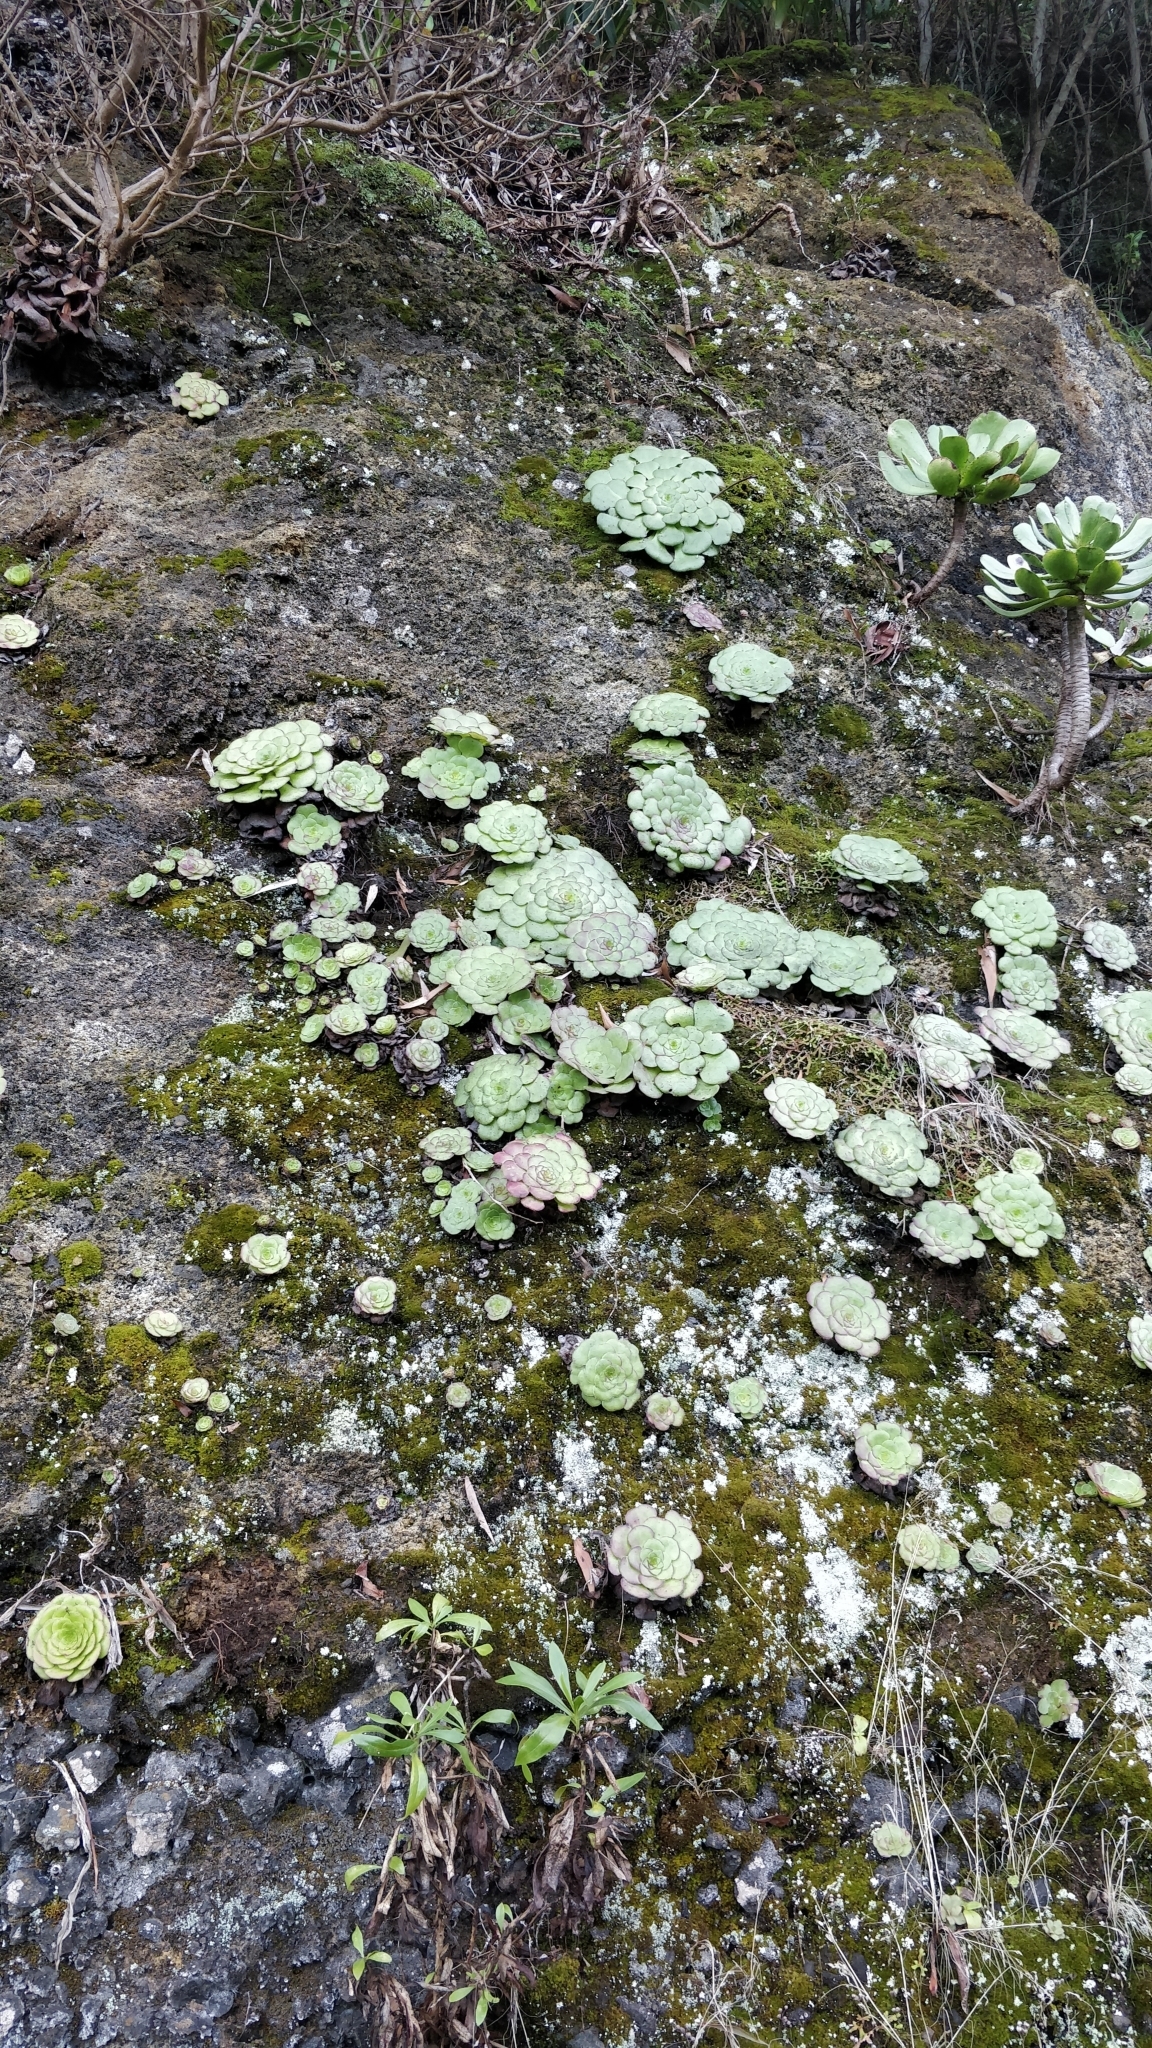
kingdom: Plantae
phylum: Tracheophyta
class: Magnoliopsida
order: Saxifragales
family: Crassulaceae
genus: Aeonium
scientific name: Aeonium glandulosum
